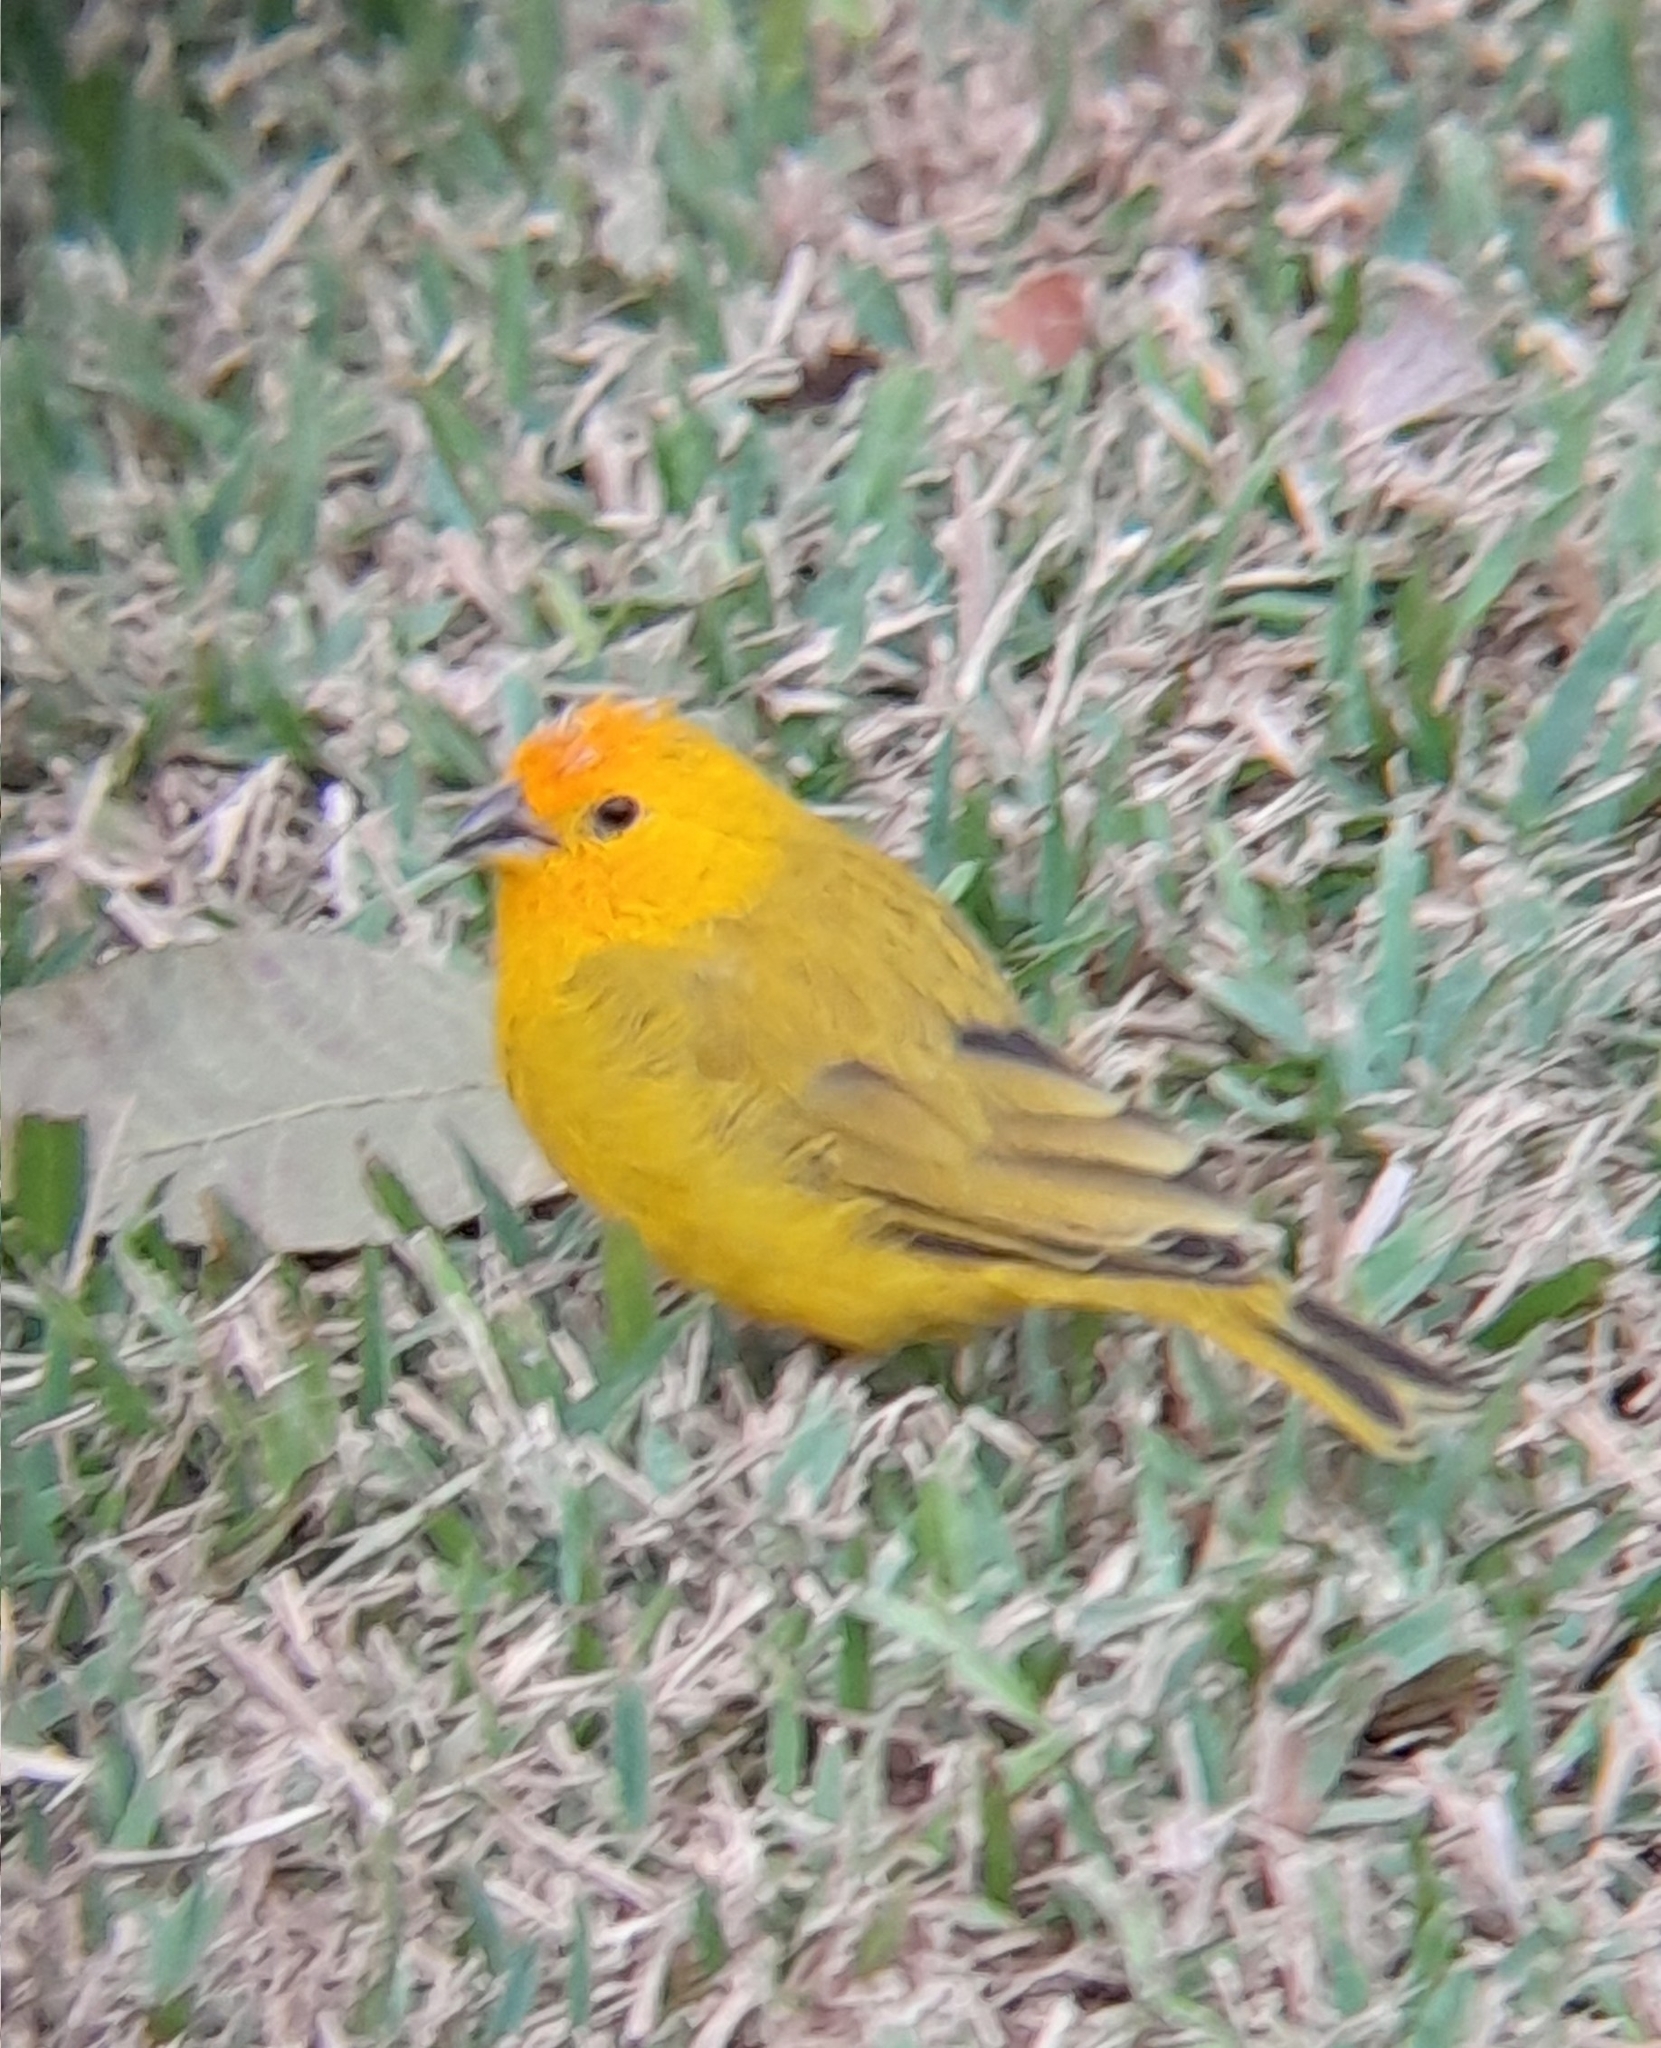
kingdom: Animalia
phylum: Chordata
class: Aves
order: Passeriformes
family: Thraupidae
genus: Sicalis
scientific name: Sicalis flaveola
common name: Saffron finch
